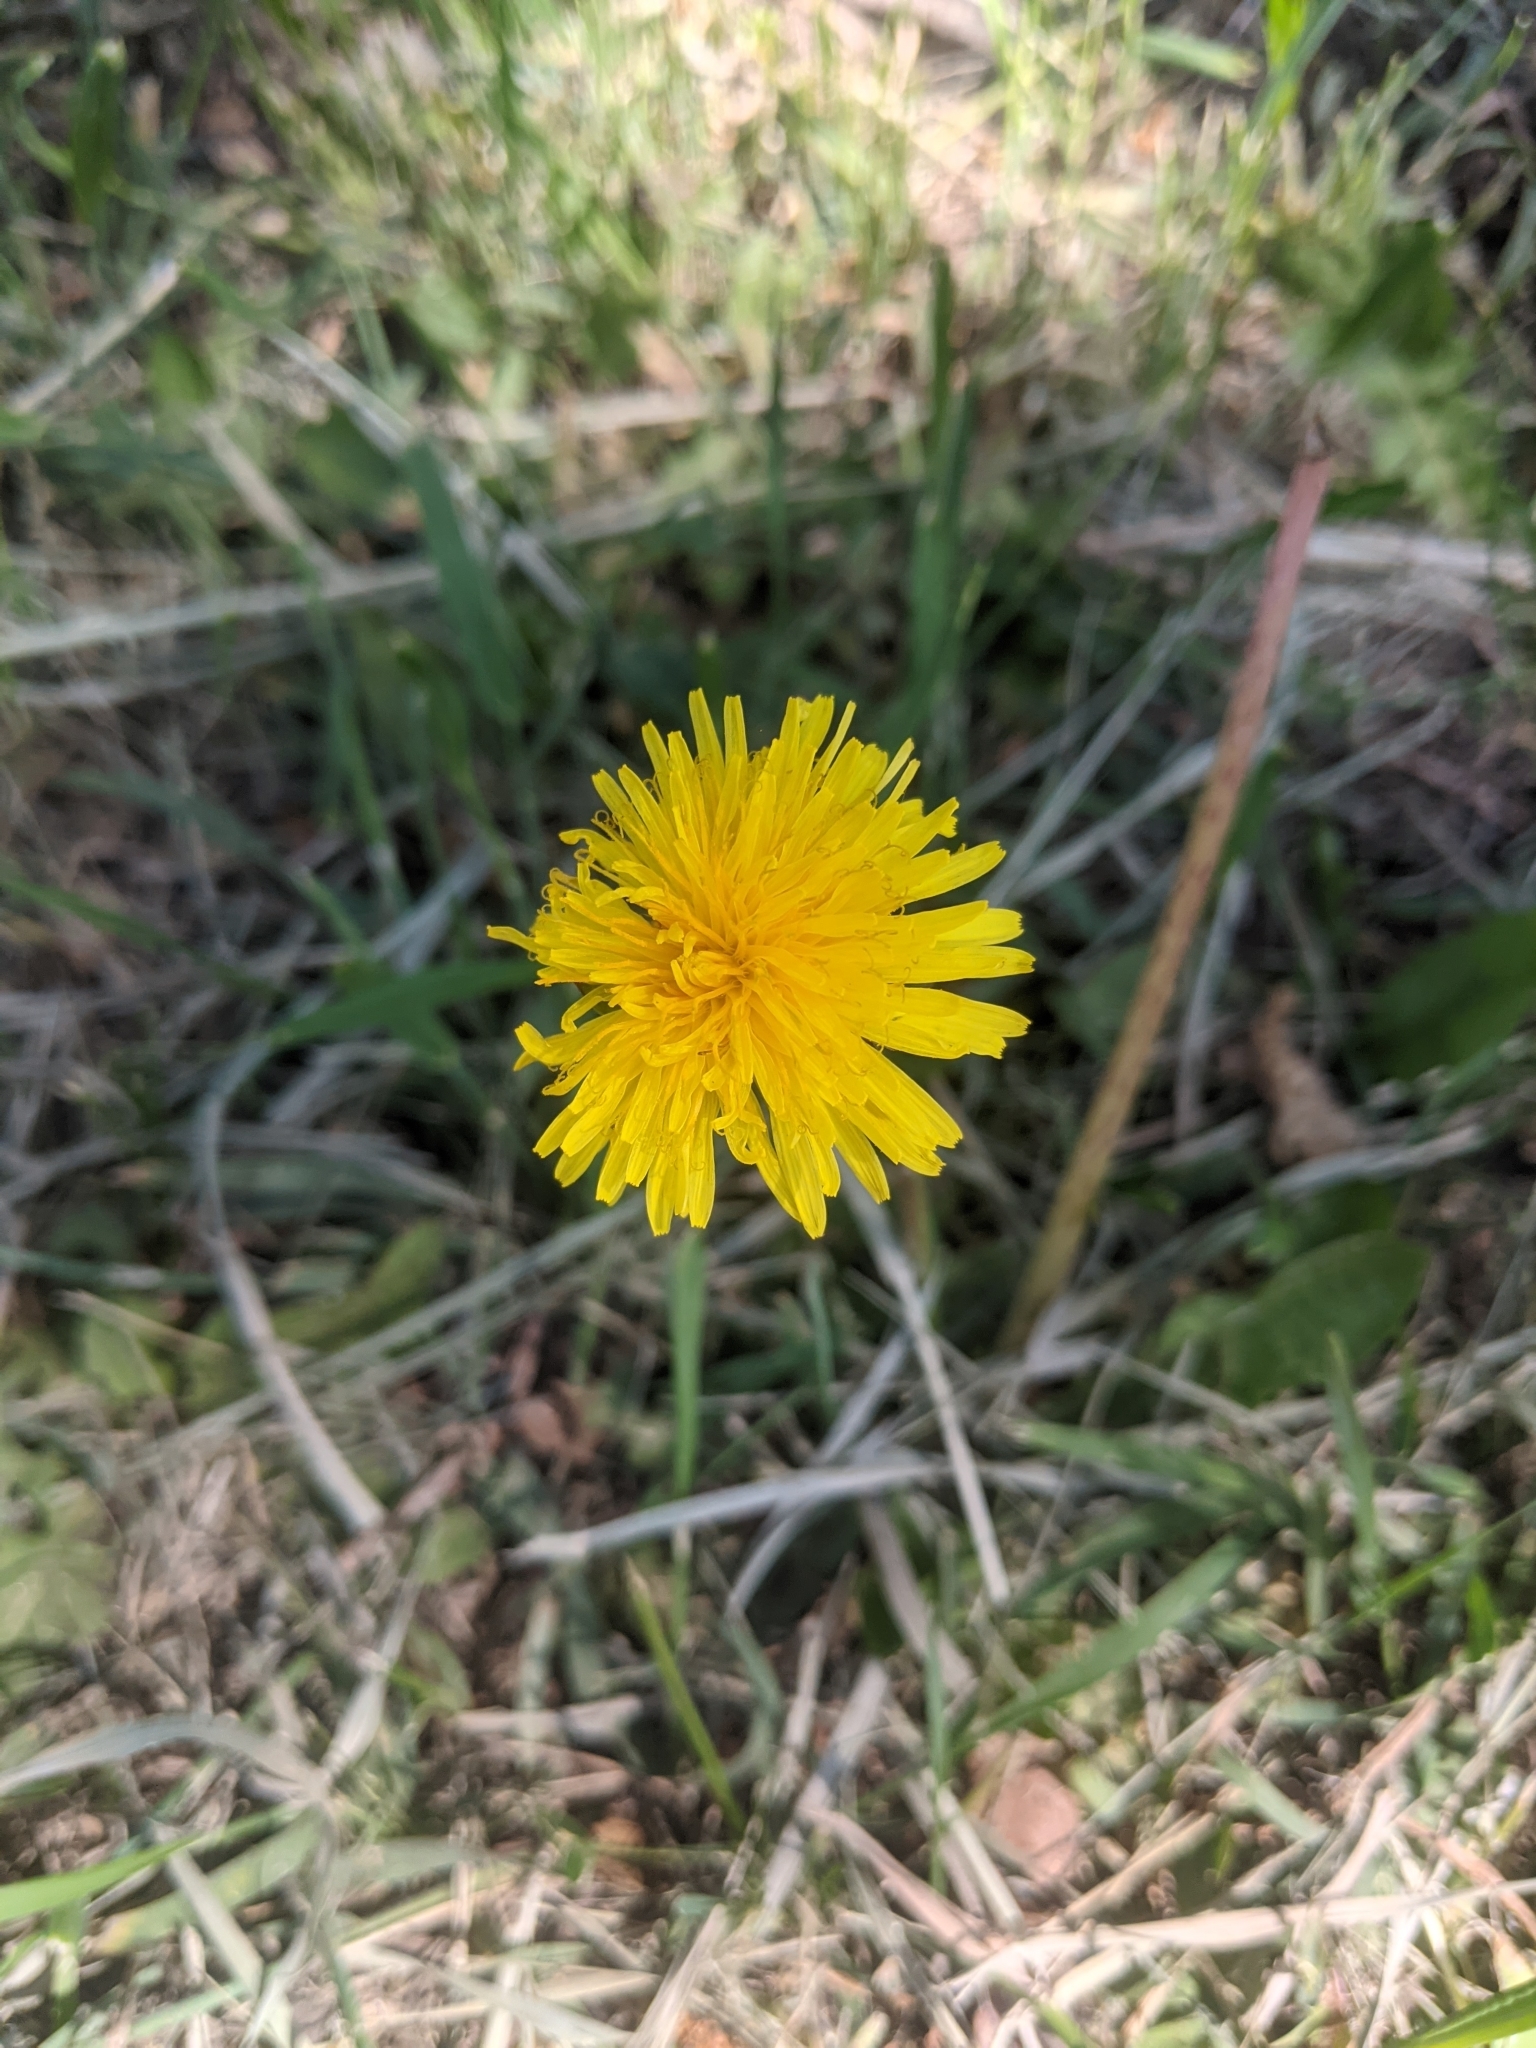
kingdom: Plantae
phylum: Tracheophyta
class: Magnoliopsida
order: Asterales
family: Asteraceae
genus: Taraxacum
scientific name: Taraxacum officinale
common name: Common dandelion
